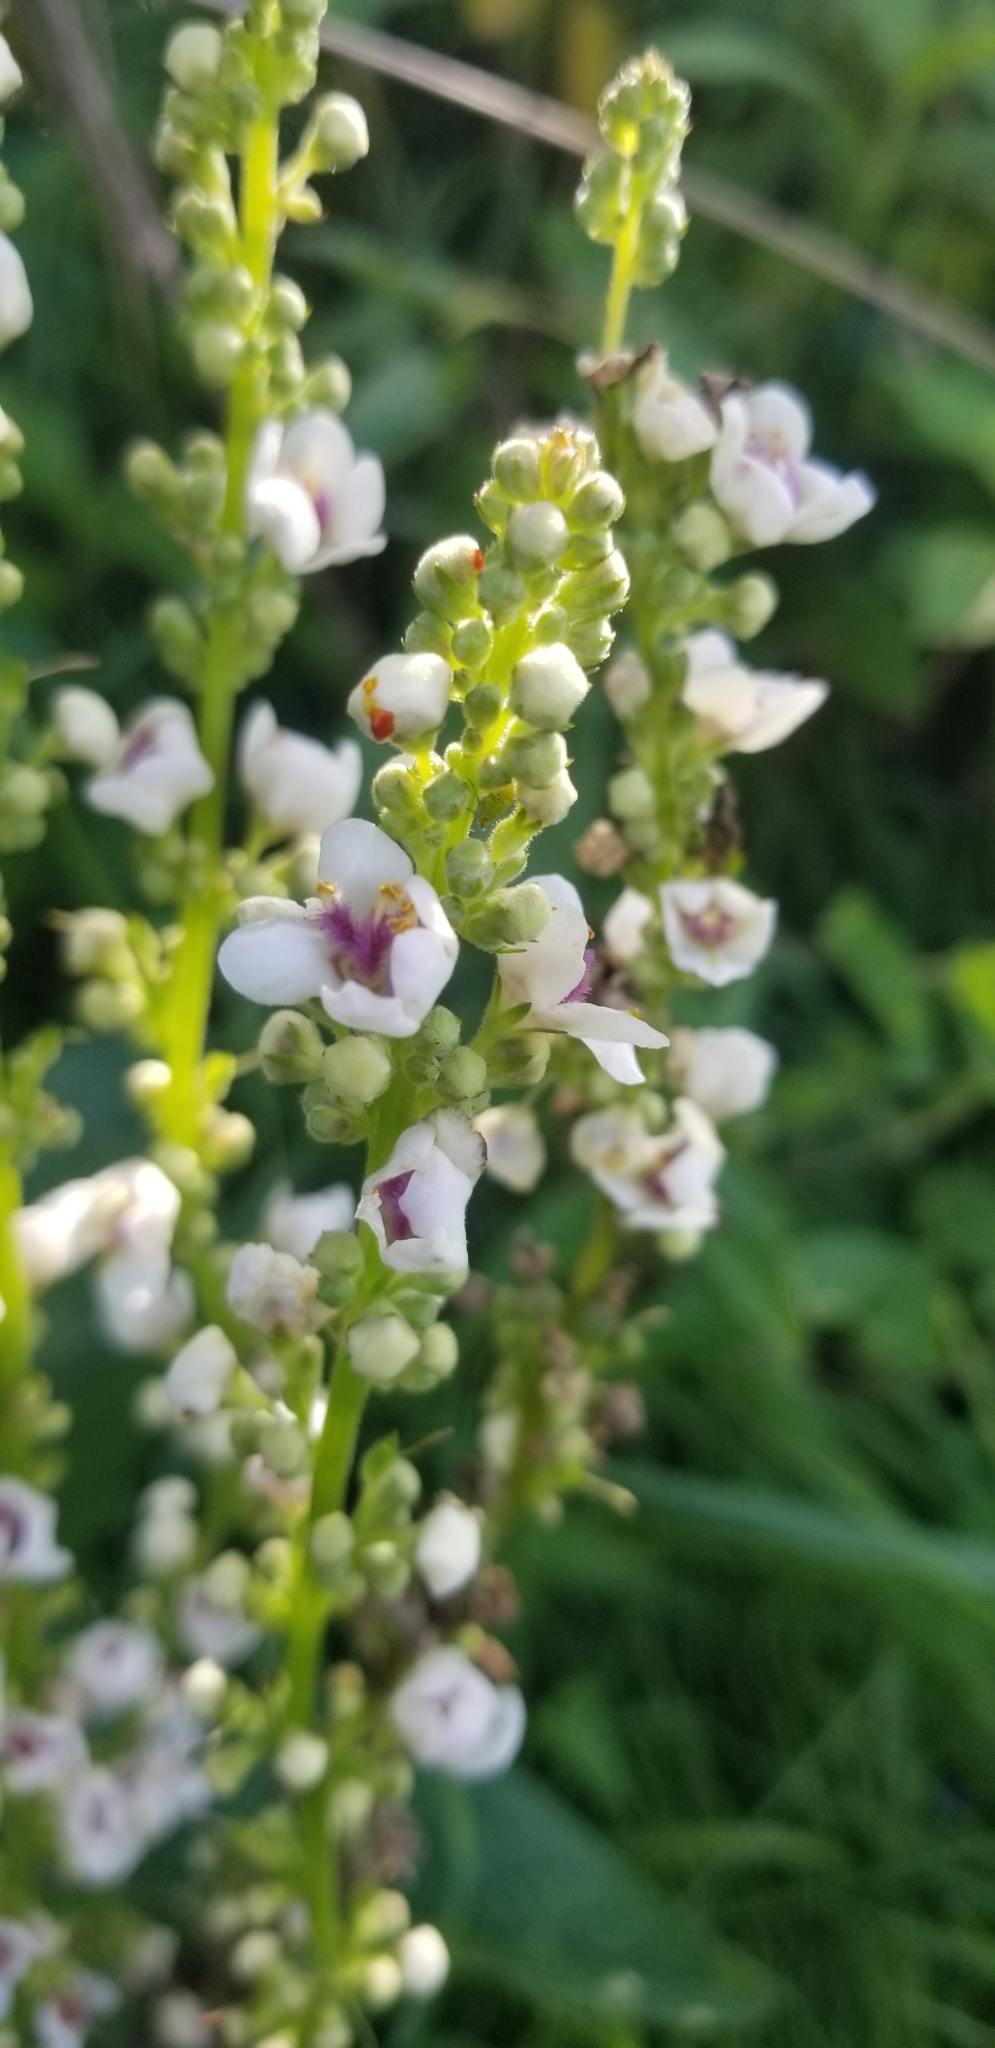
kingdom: Plantae
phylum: Tracheophyta
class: Magnoliopsida
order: Lamiales
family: Scrophulariaceae
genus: Verbascum
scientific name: Verbascum nigrum
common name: Dark mullein
